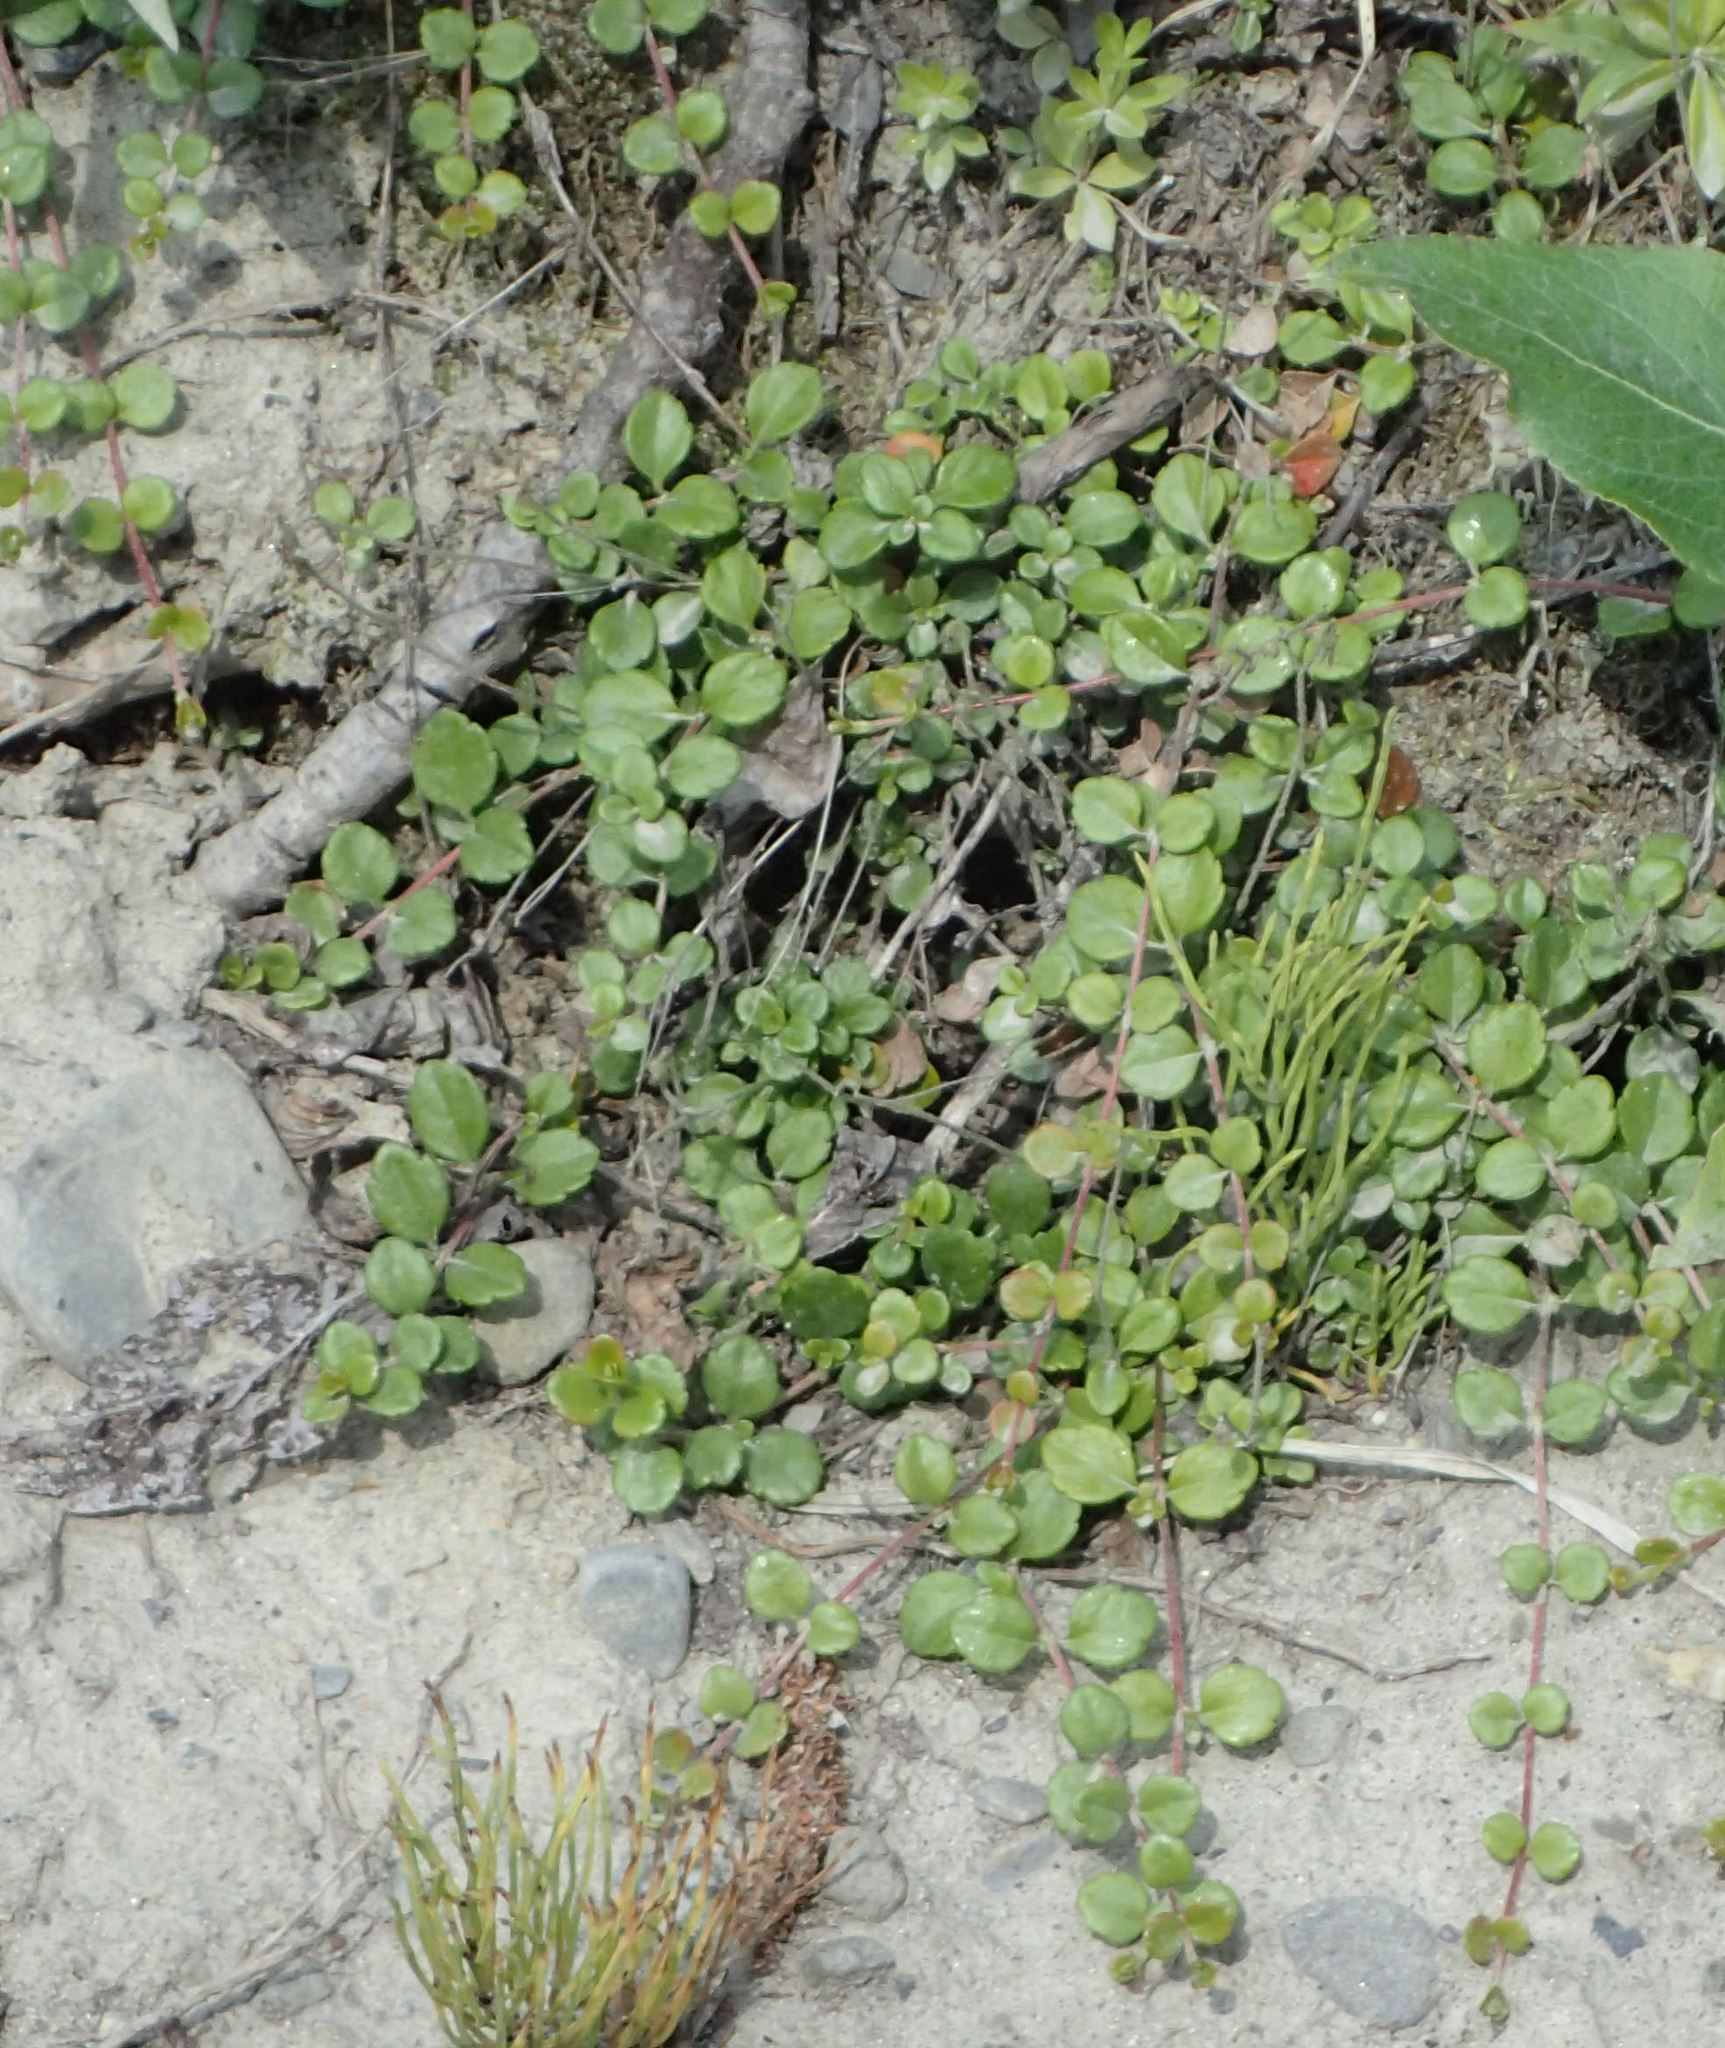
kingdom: Plantae
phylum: Tracheophyta
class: Magnoliopsida
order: Dipsacales
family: Caprifoliaceae
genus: Linnaea
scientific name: Linnaea borealis
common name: Twinflower
